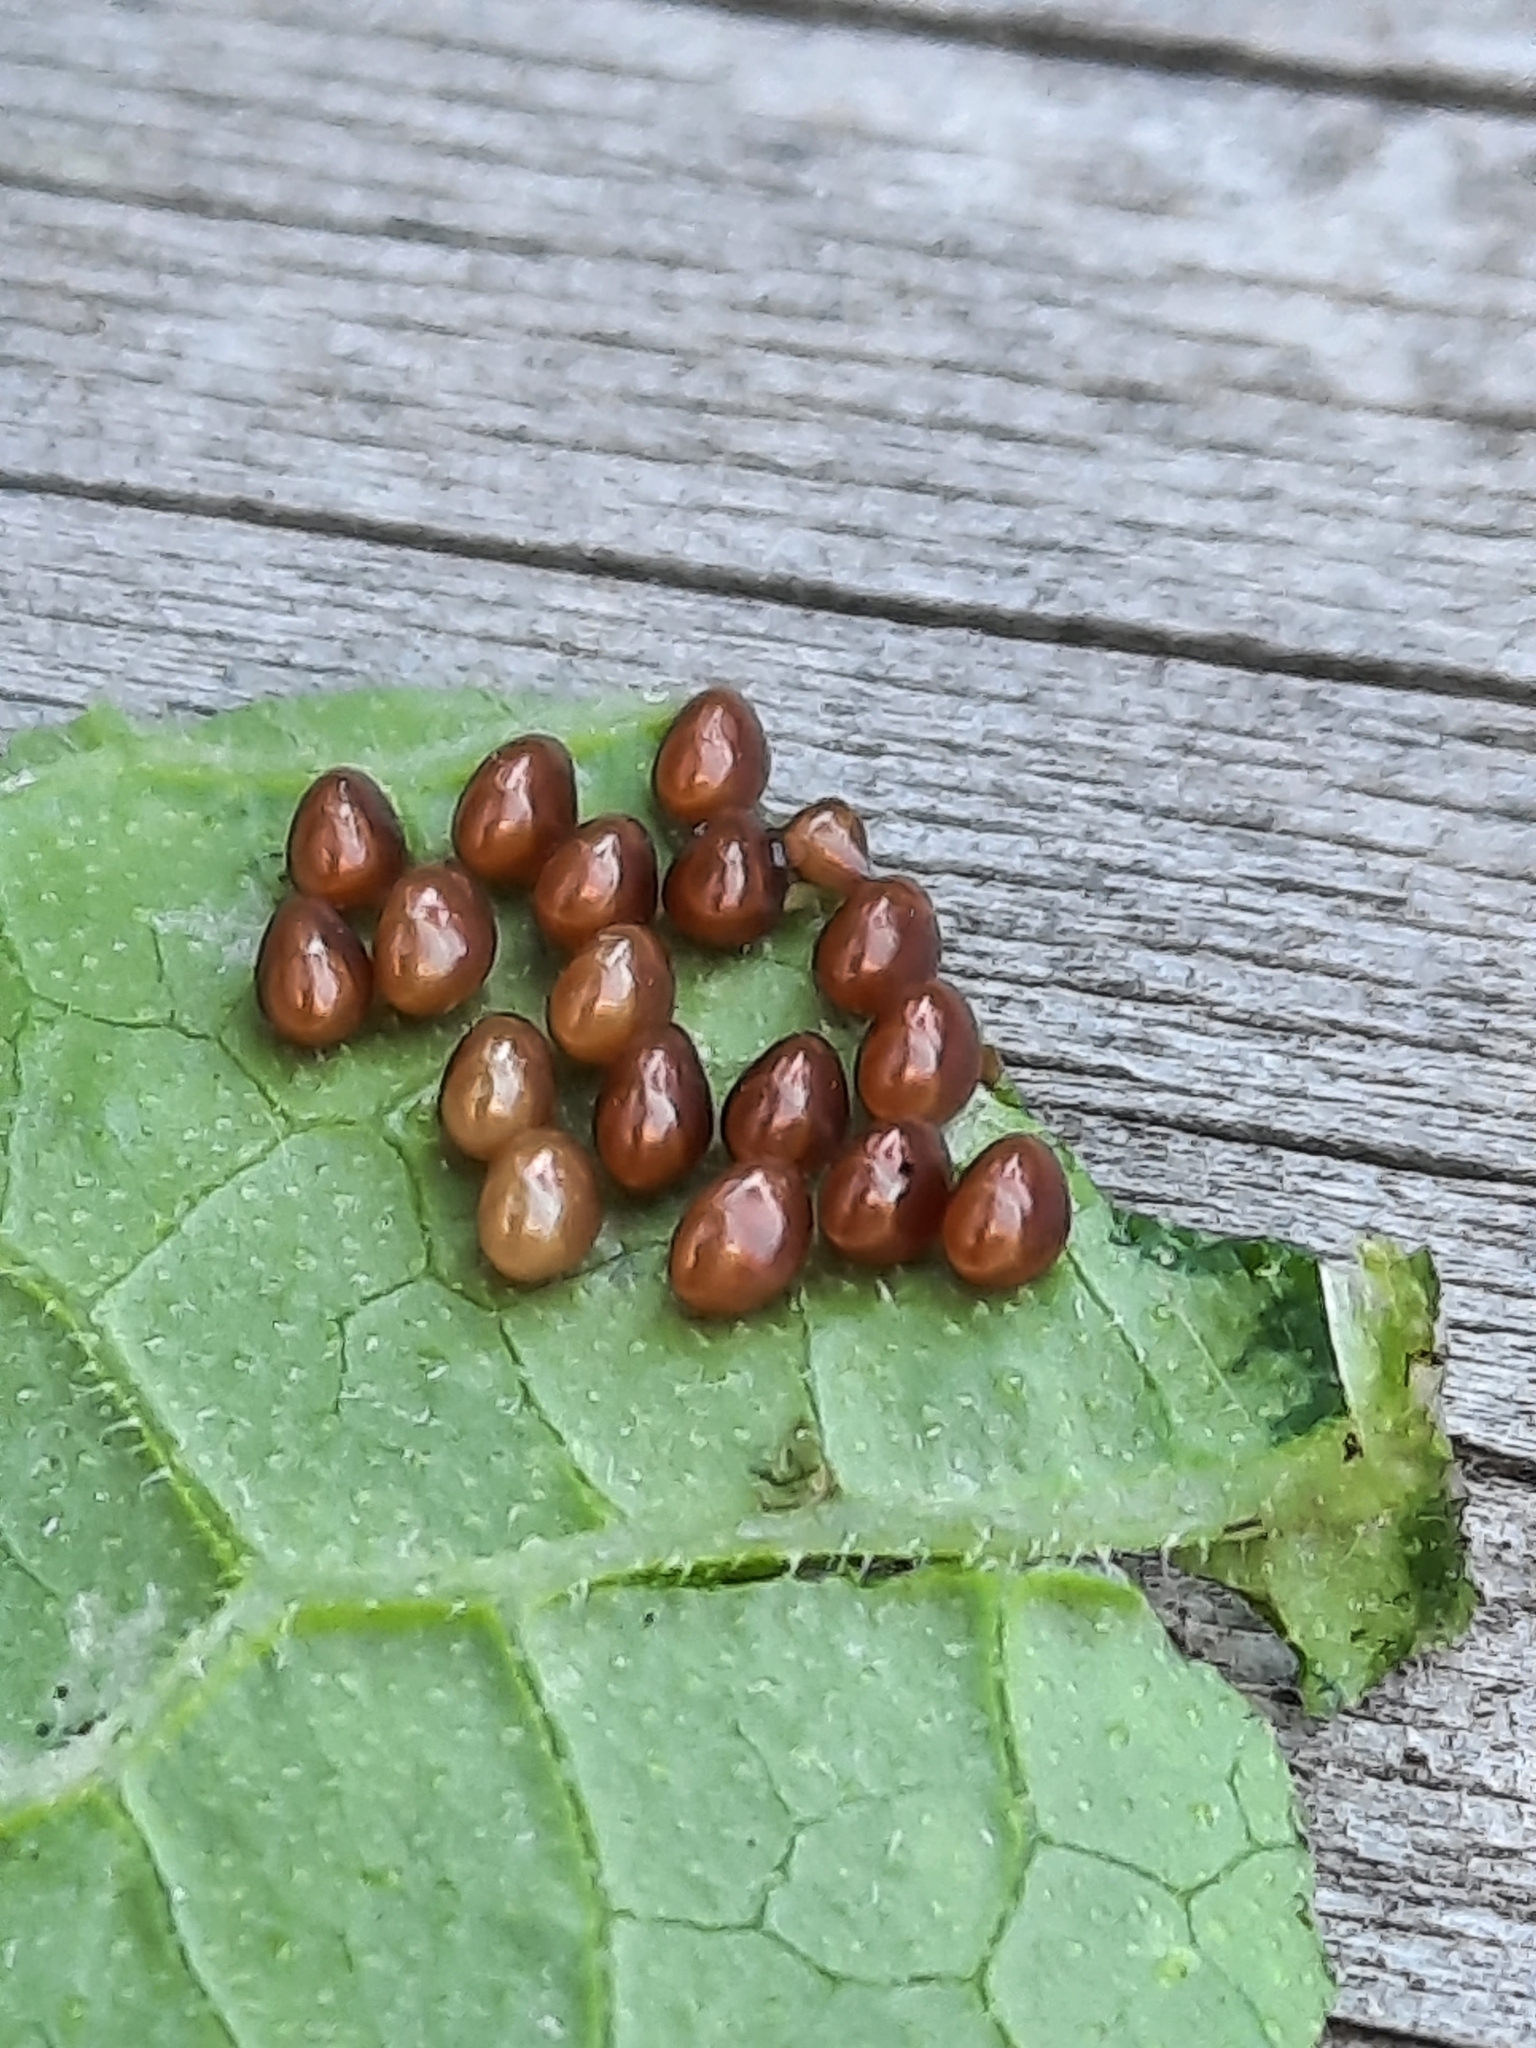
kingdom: Animalia
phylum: Arthropoda
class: Insecta
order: Hemiptera
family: Coreidae
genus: Anasa
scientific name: Anasa tristis
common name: Squash bug
